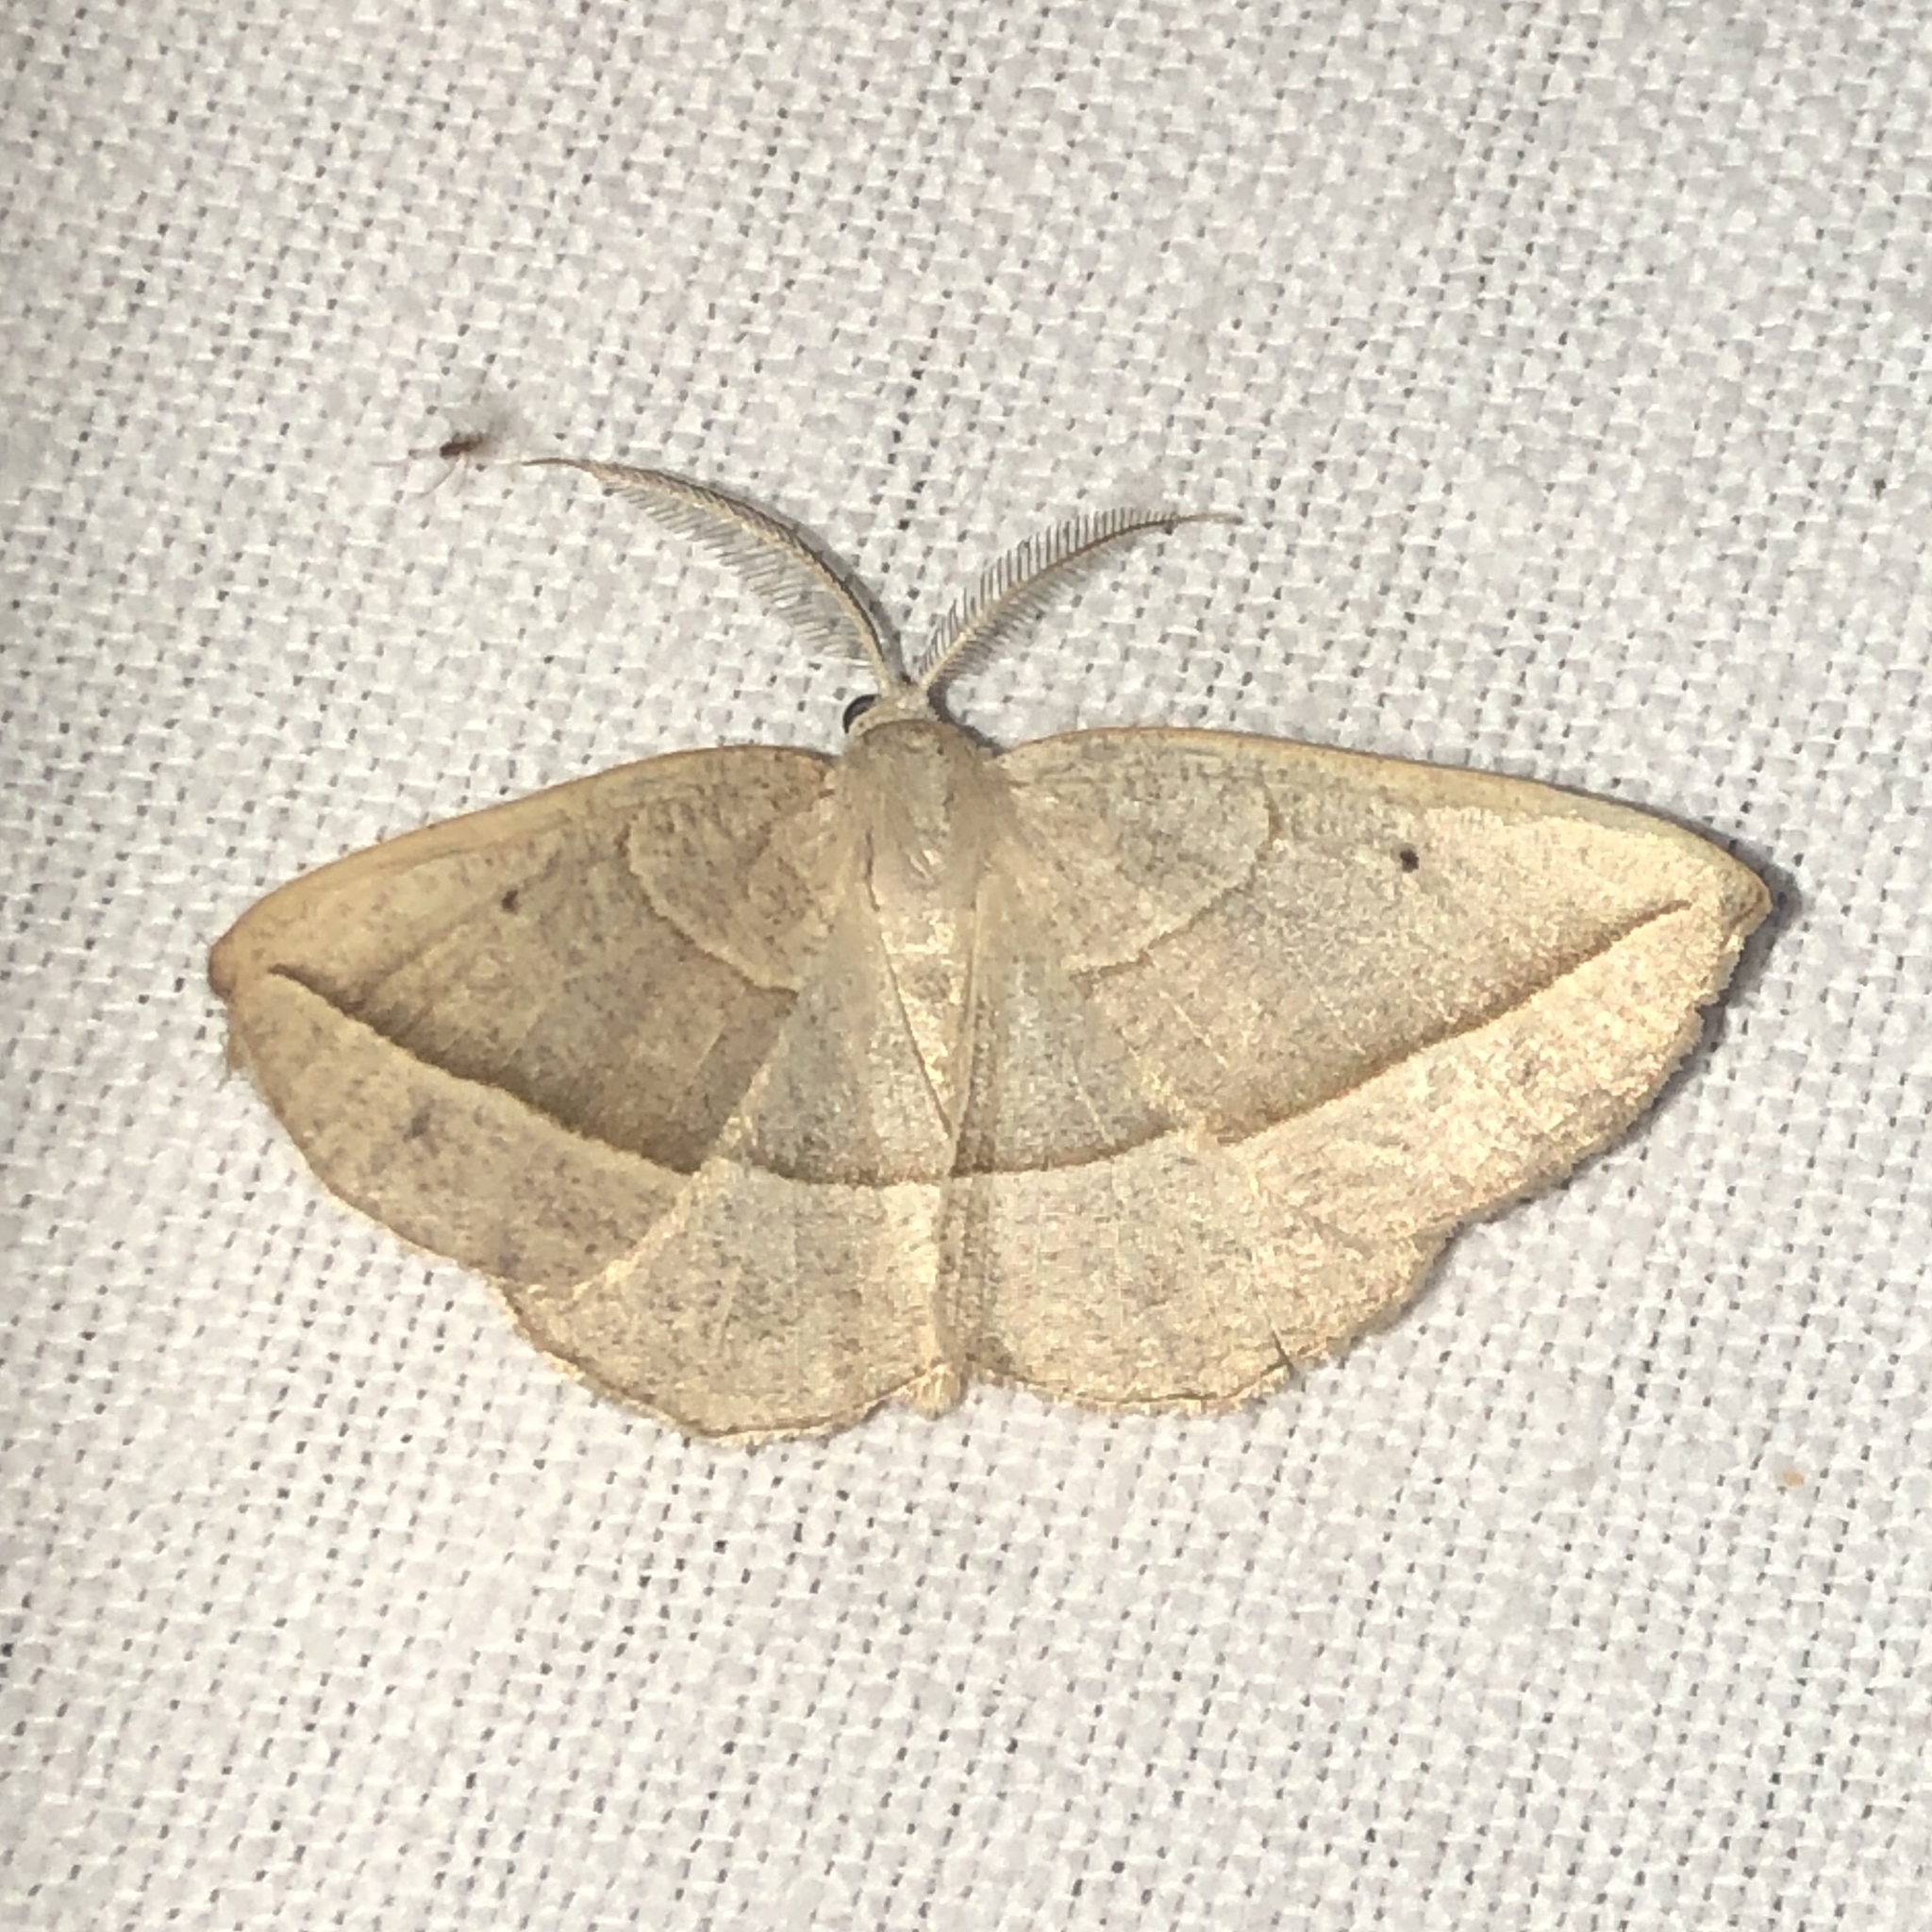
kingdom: Animalia
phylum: Arthropoda
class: Insecta
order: Lepidoptera
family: Geometridae
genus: Eusarca
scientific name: Eusarca confusaria
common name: Confused eusarca
